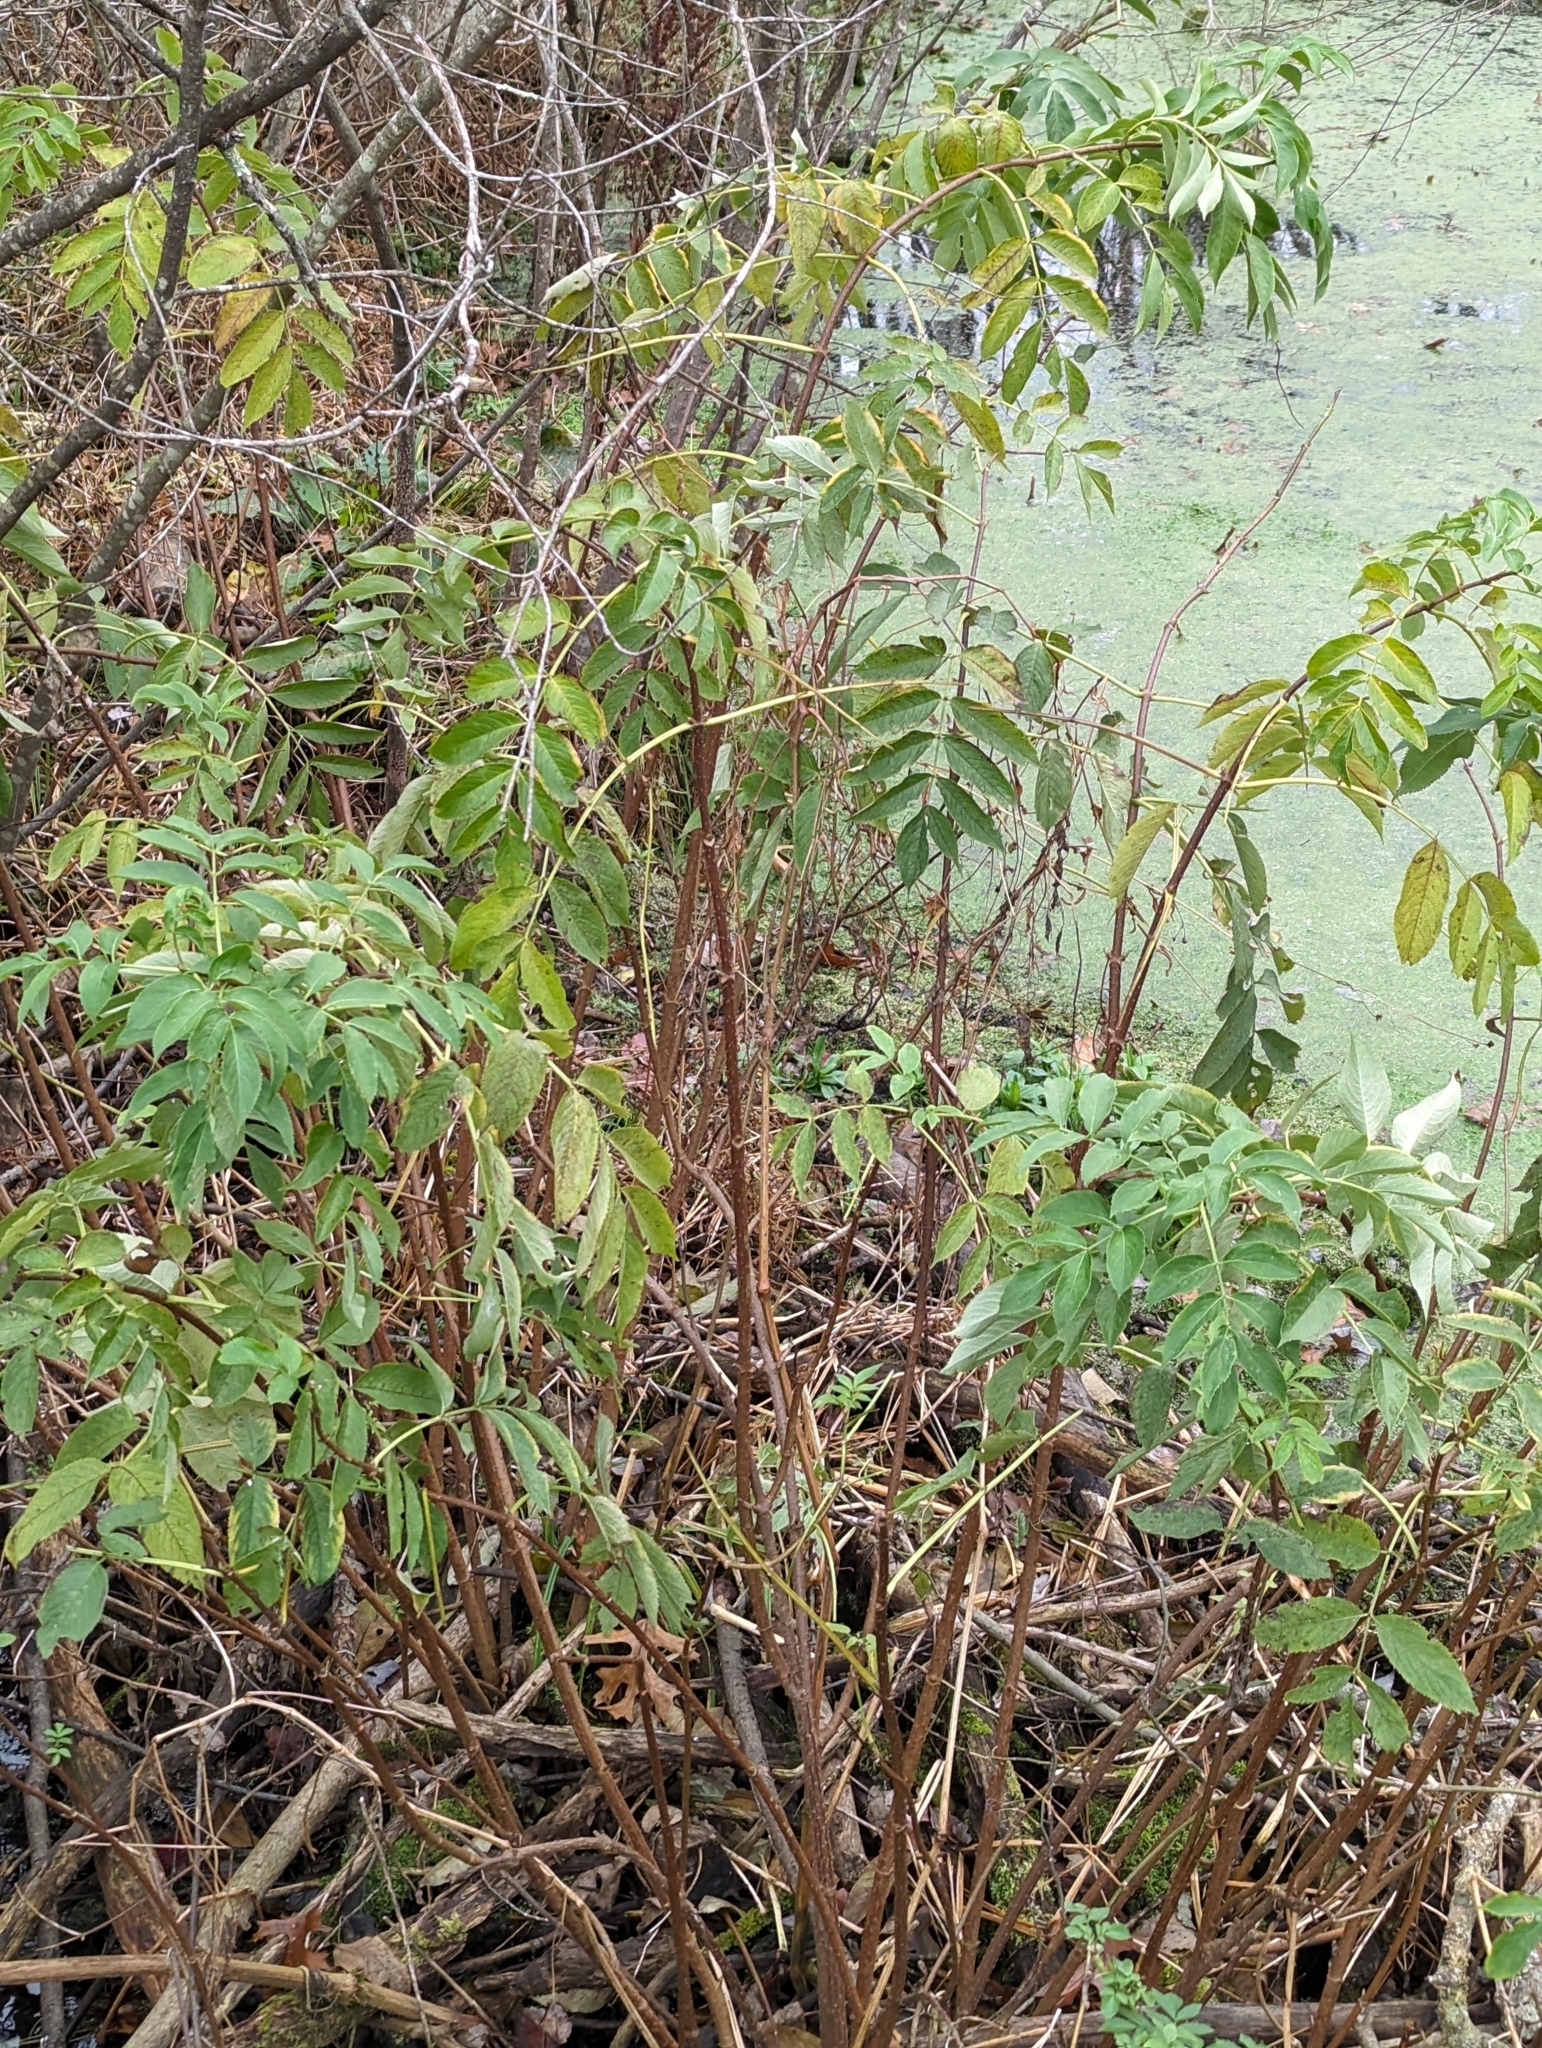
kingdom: Plantae
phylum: Tracheophyta
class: Magnoliopsida
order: Dipsacales
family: Viburnaceae
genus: Sambucus
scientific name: Sambucus canadensis
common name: American elder
